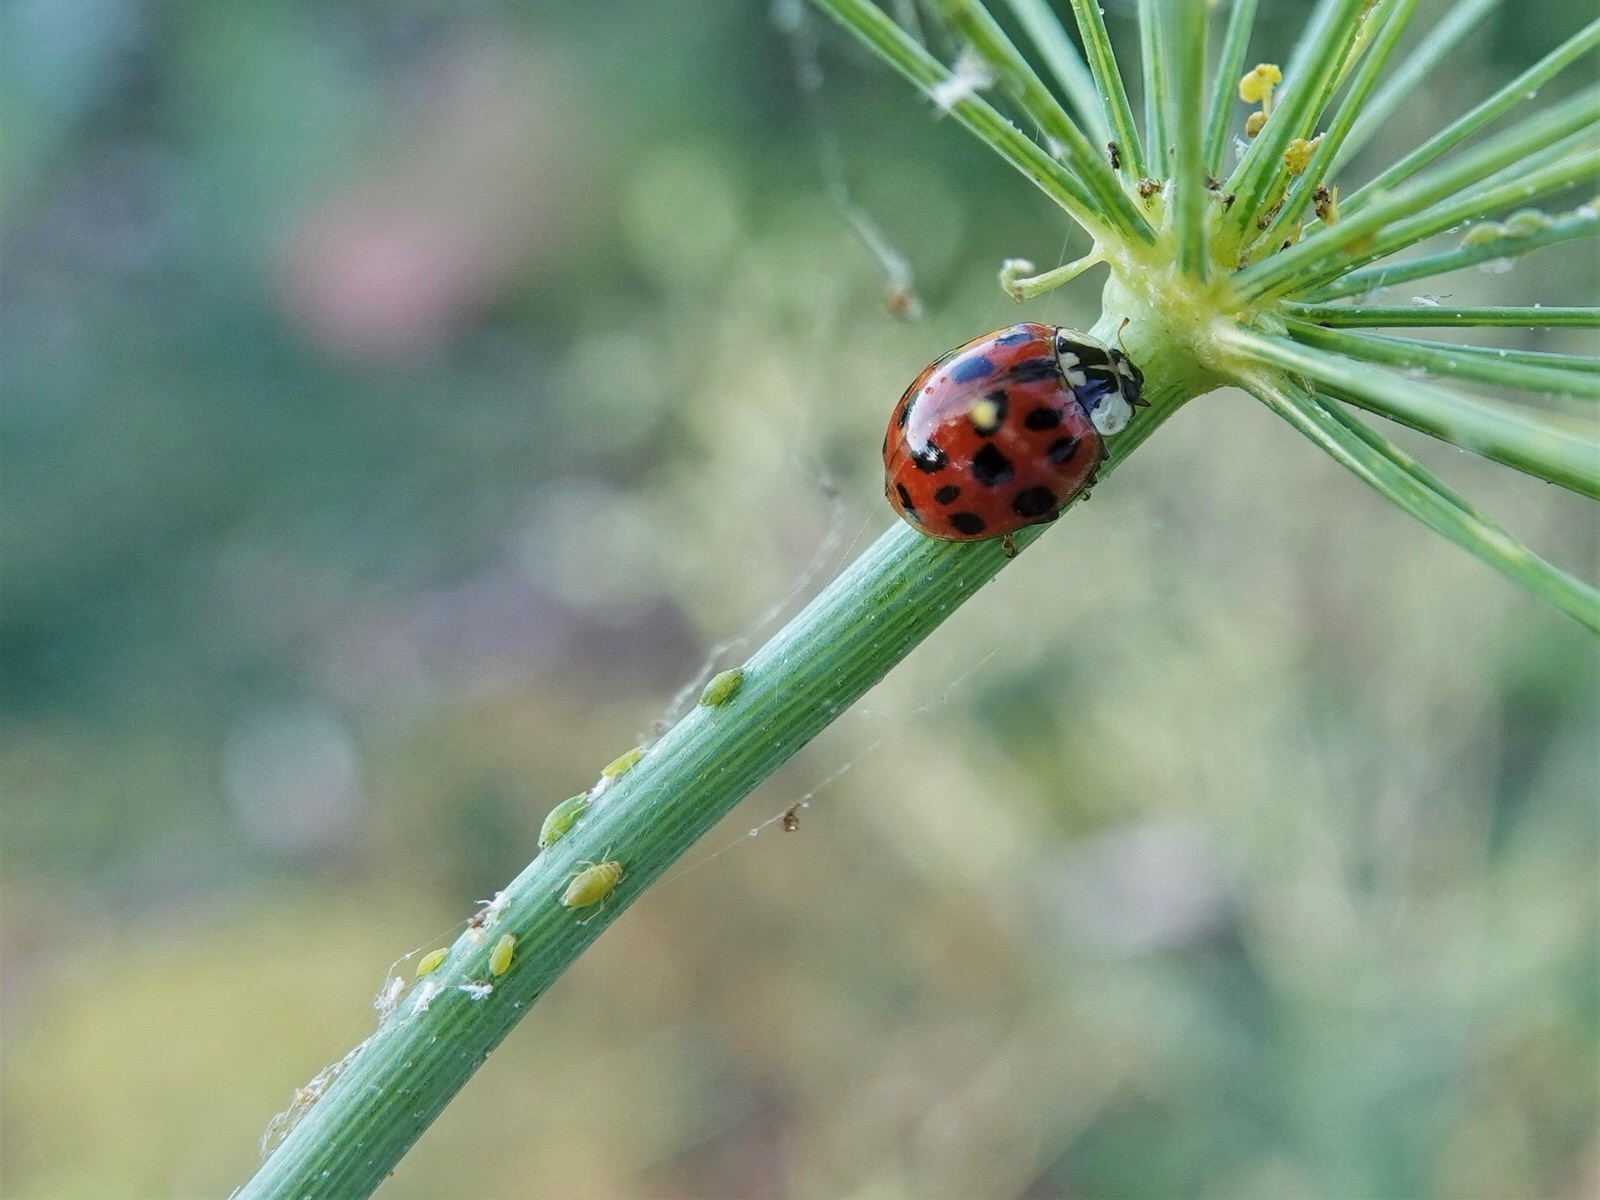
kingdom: Animalia
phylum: Arthropoda
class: Insecta
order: Coleoptera
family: Coccinellidae
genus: Harmonia
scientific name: Harmonia axyridis
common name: Harlequin ladybird
